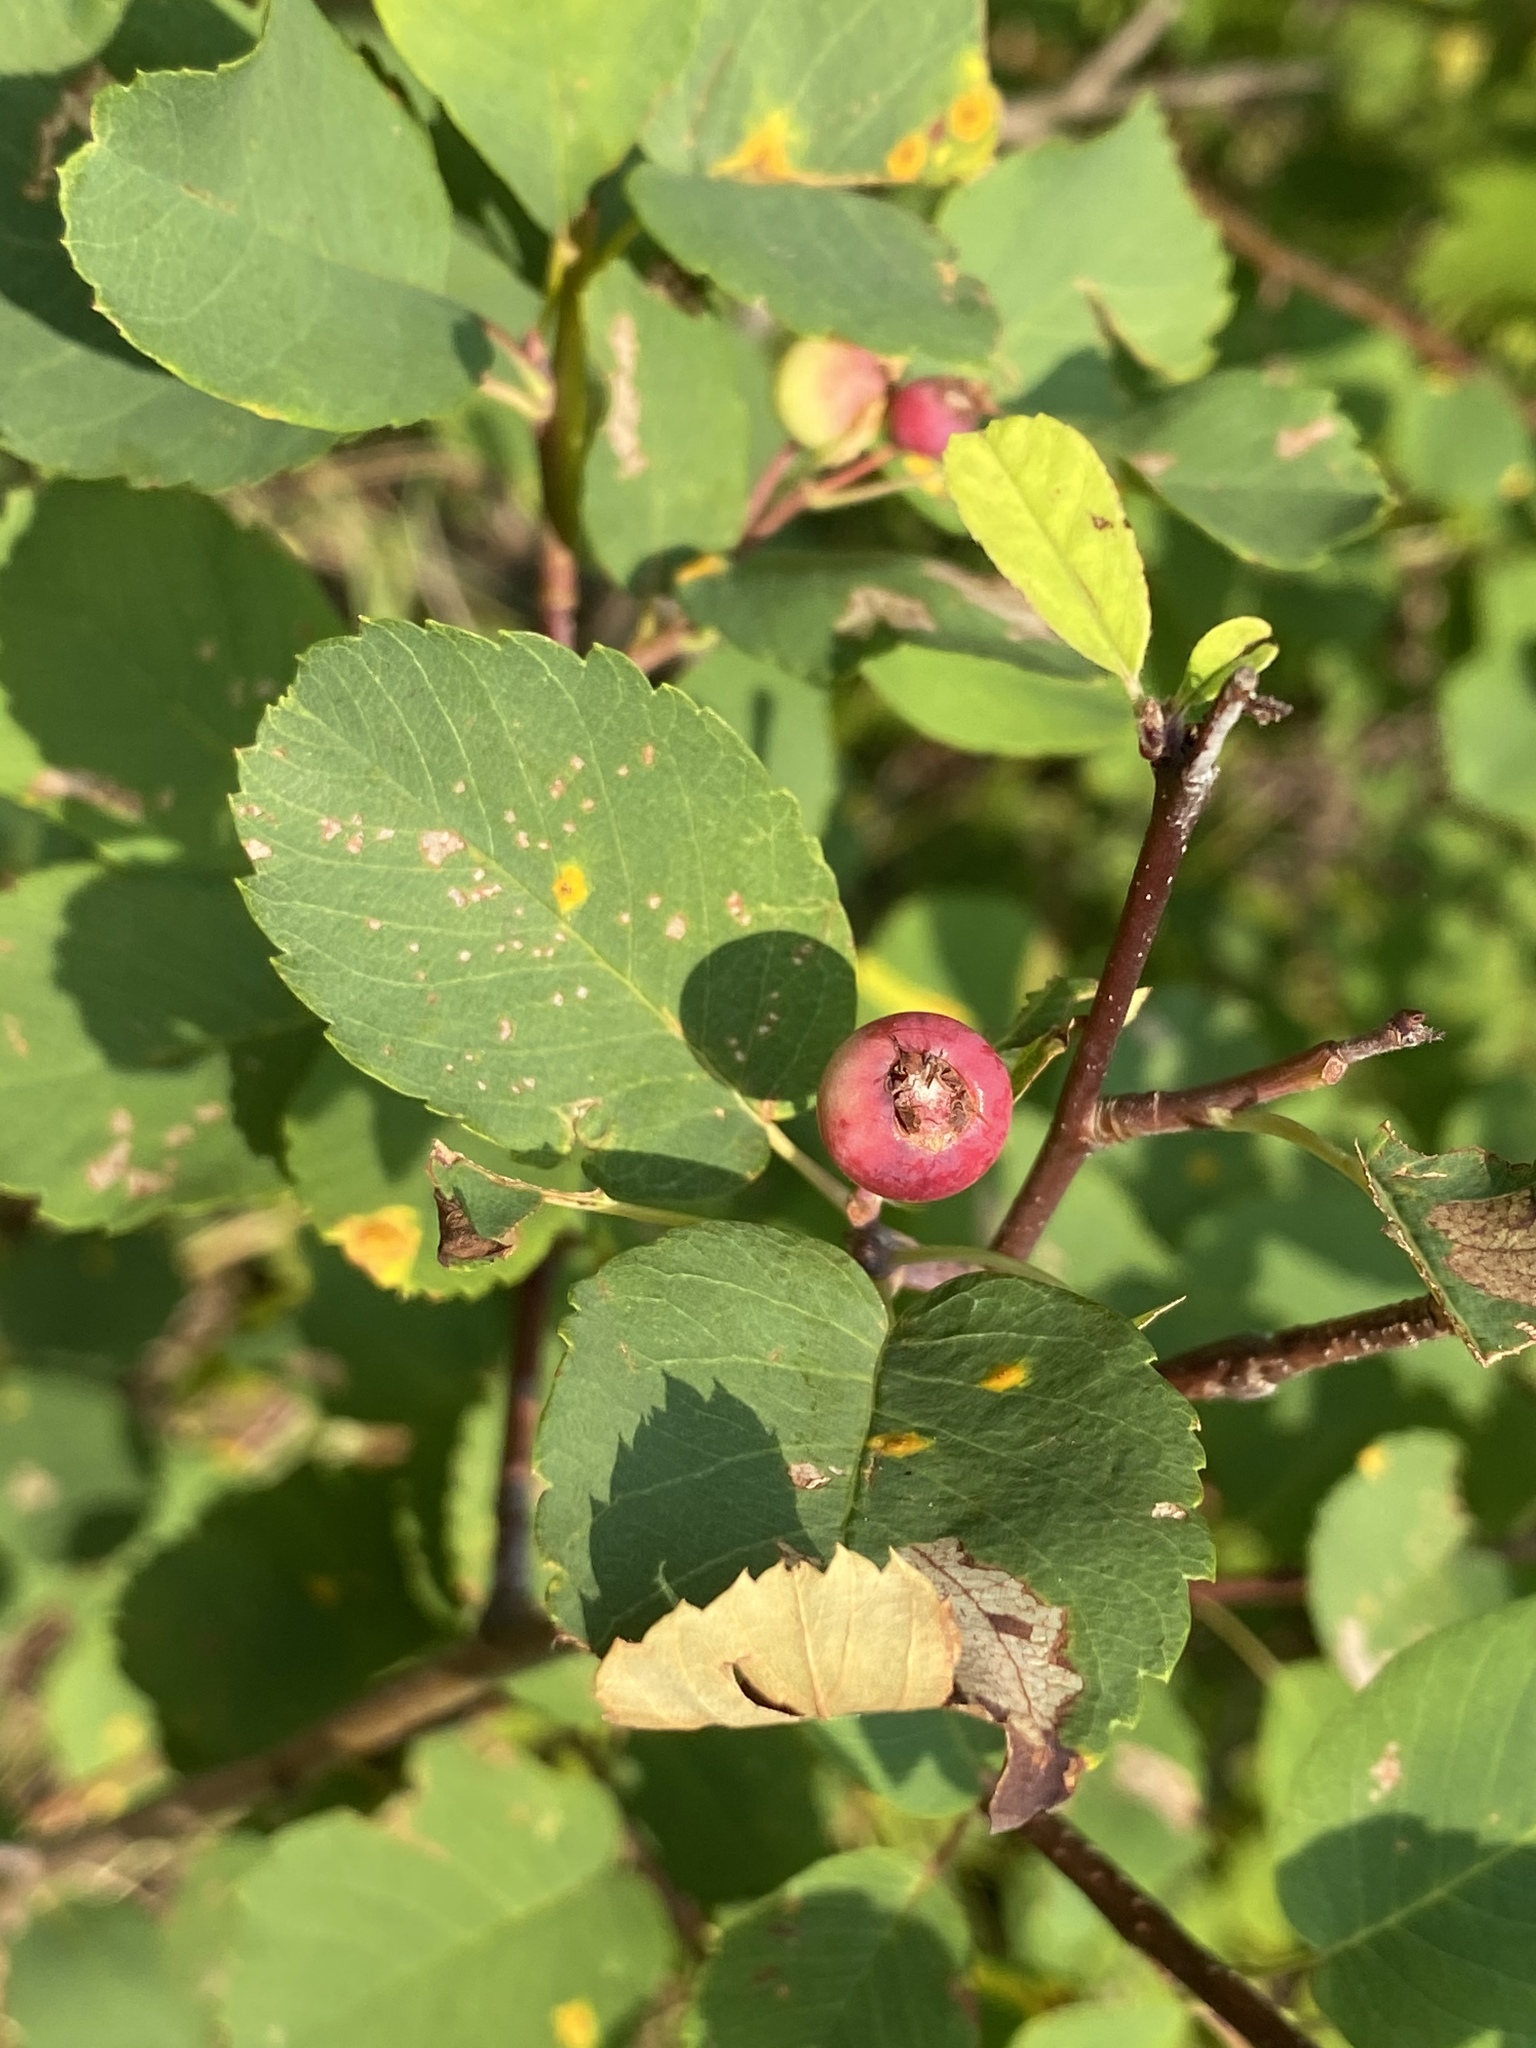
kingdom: Plantae
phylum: Tracheophyta
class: Magnoliopsida
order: Rosales
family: Rosaceae
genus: Amelanchier
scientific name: Amelanchier alnifolia
